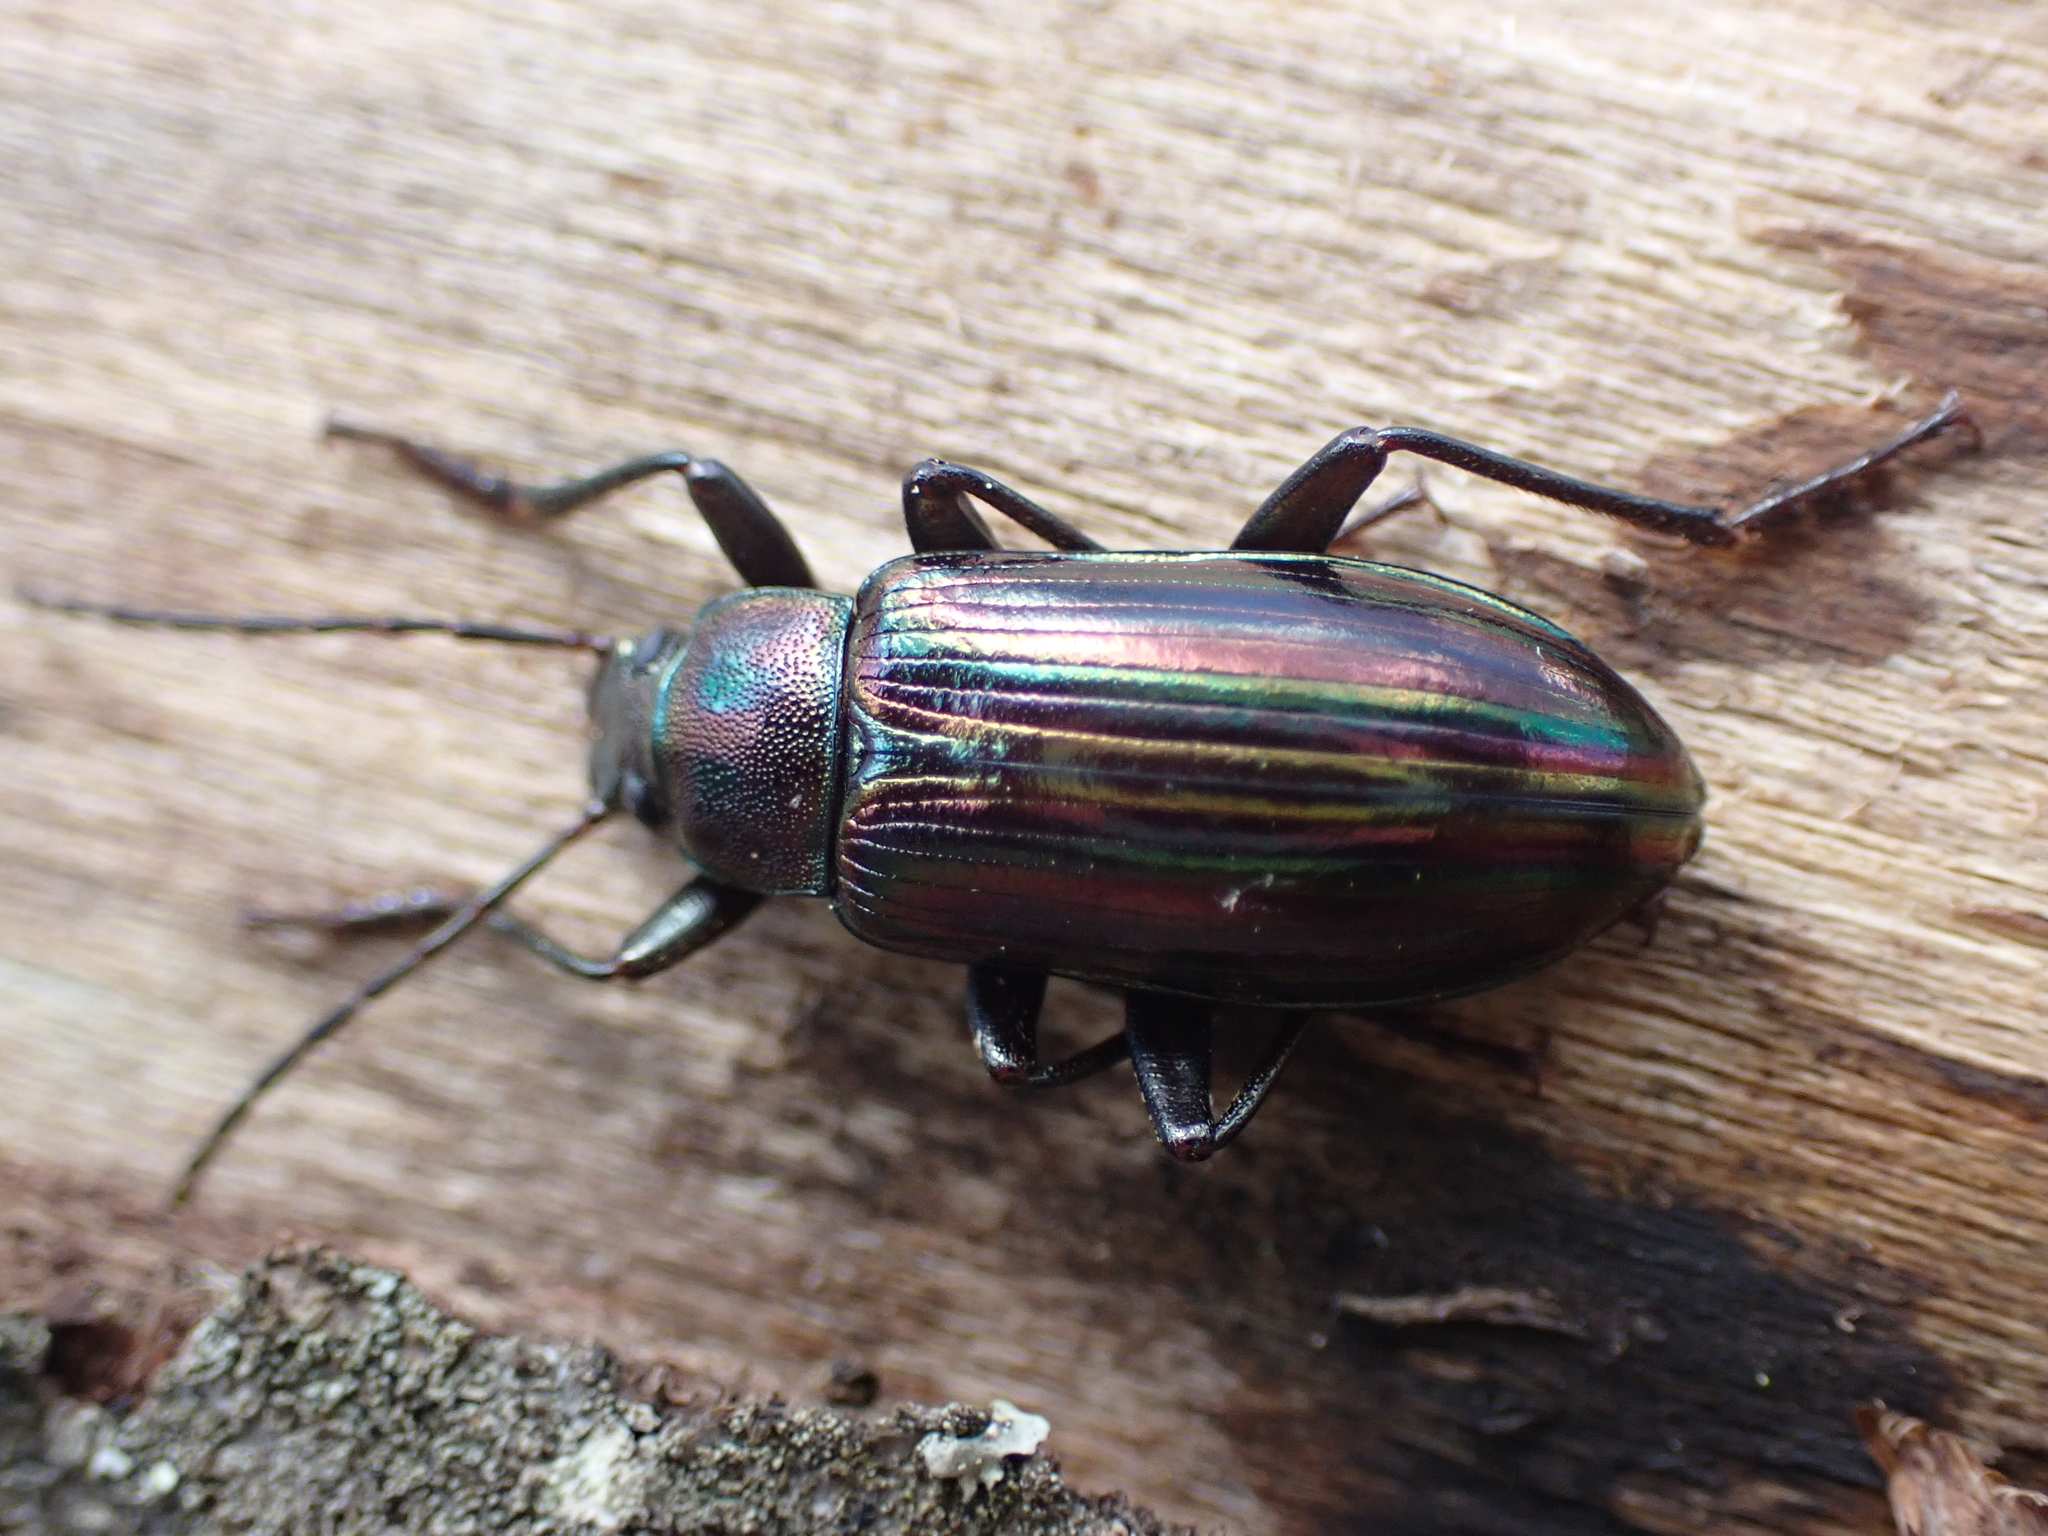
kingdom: Animalia
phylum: Arthropoda
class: Insecta
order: Coleoptera
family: Tenebrionidae
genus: Tarpela
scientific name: Tarpela micans
